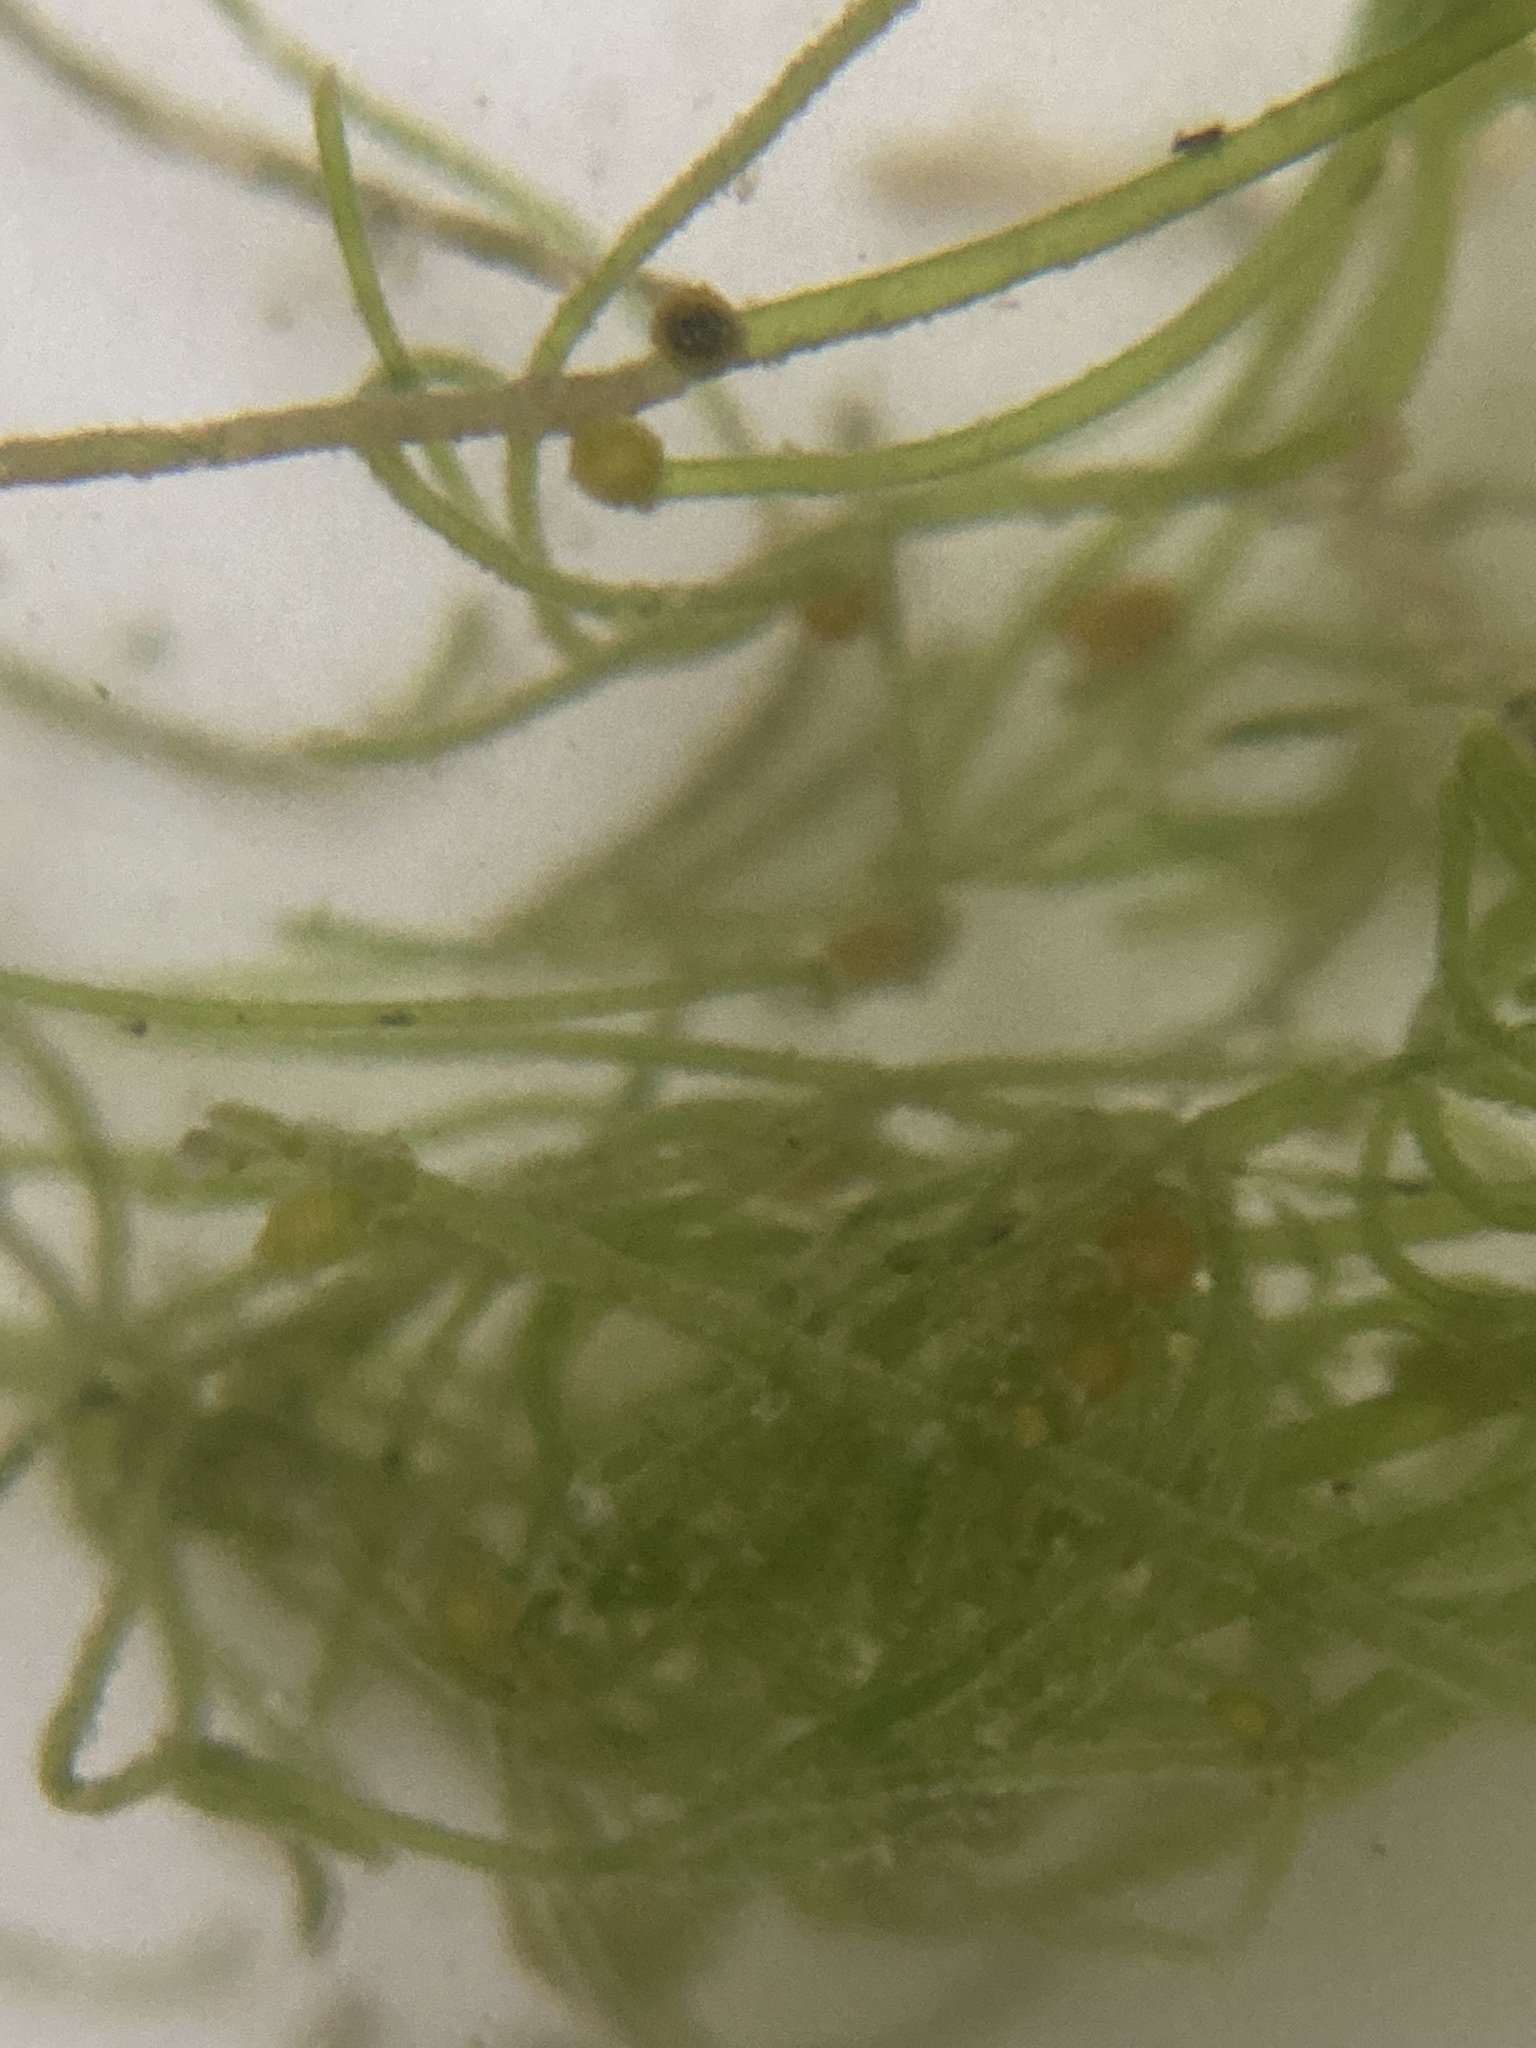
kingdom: Plantae
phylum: Charophyta
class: Charophyceae
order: Charales
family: Characeae
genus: Nitella
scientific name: Nitella opaca
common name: Dark stonewort
